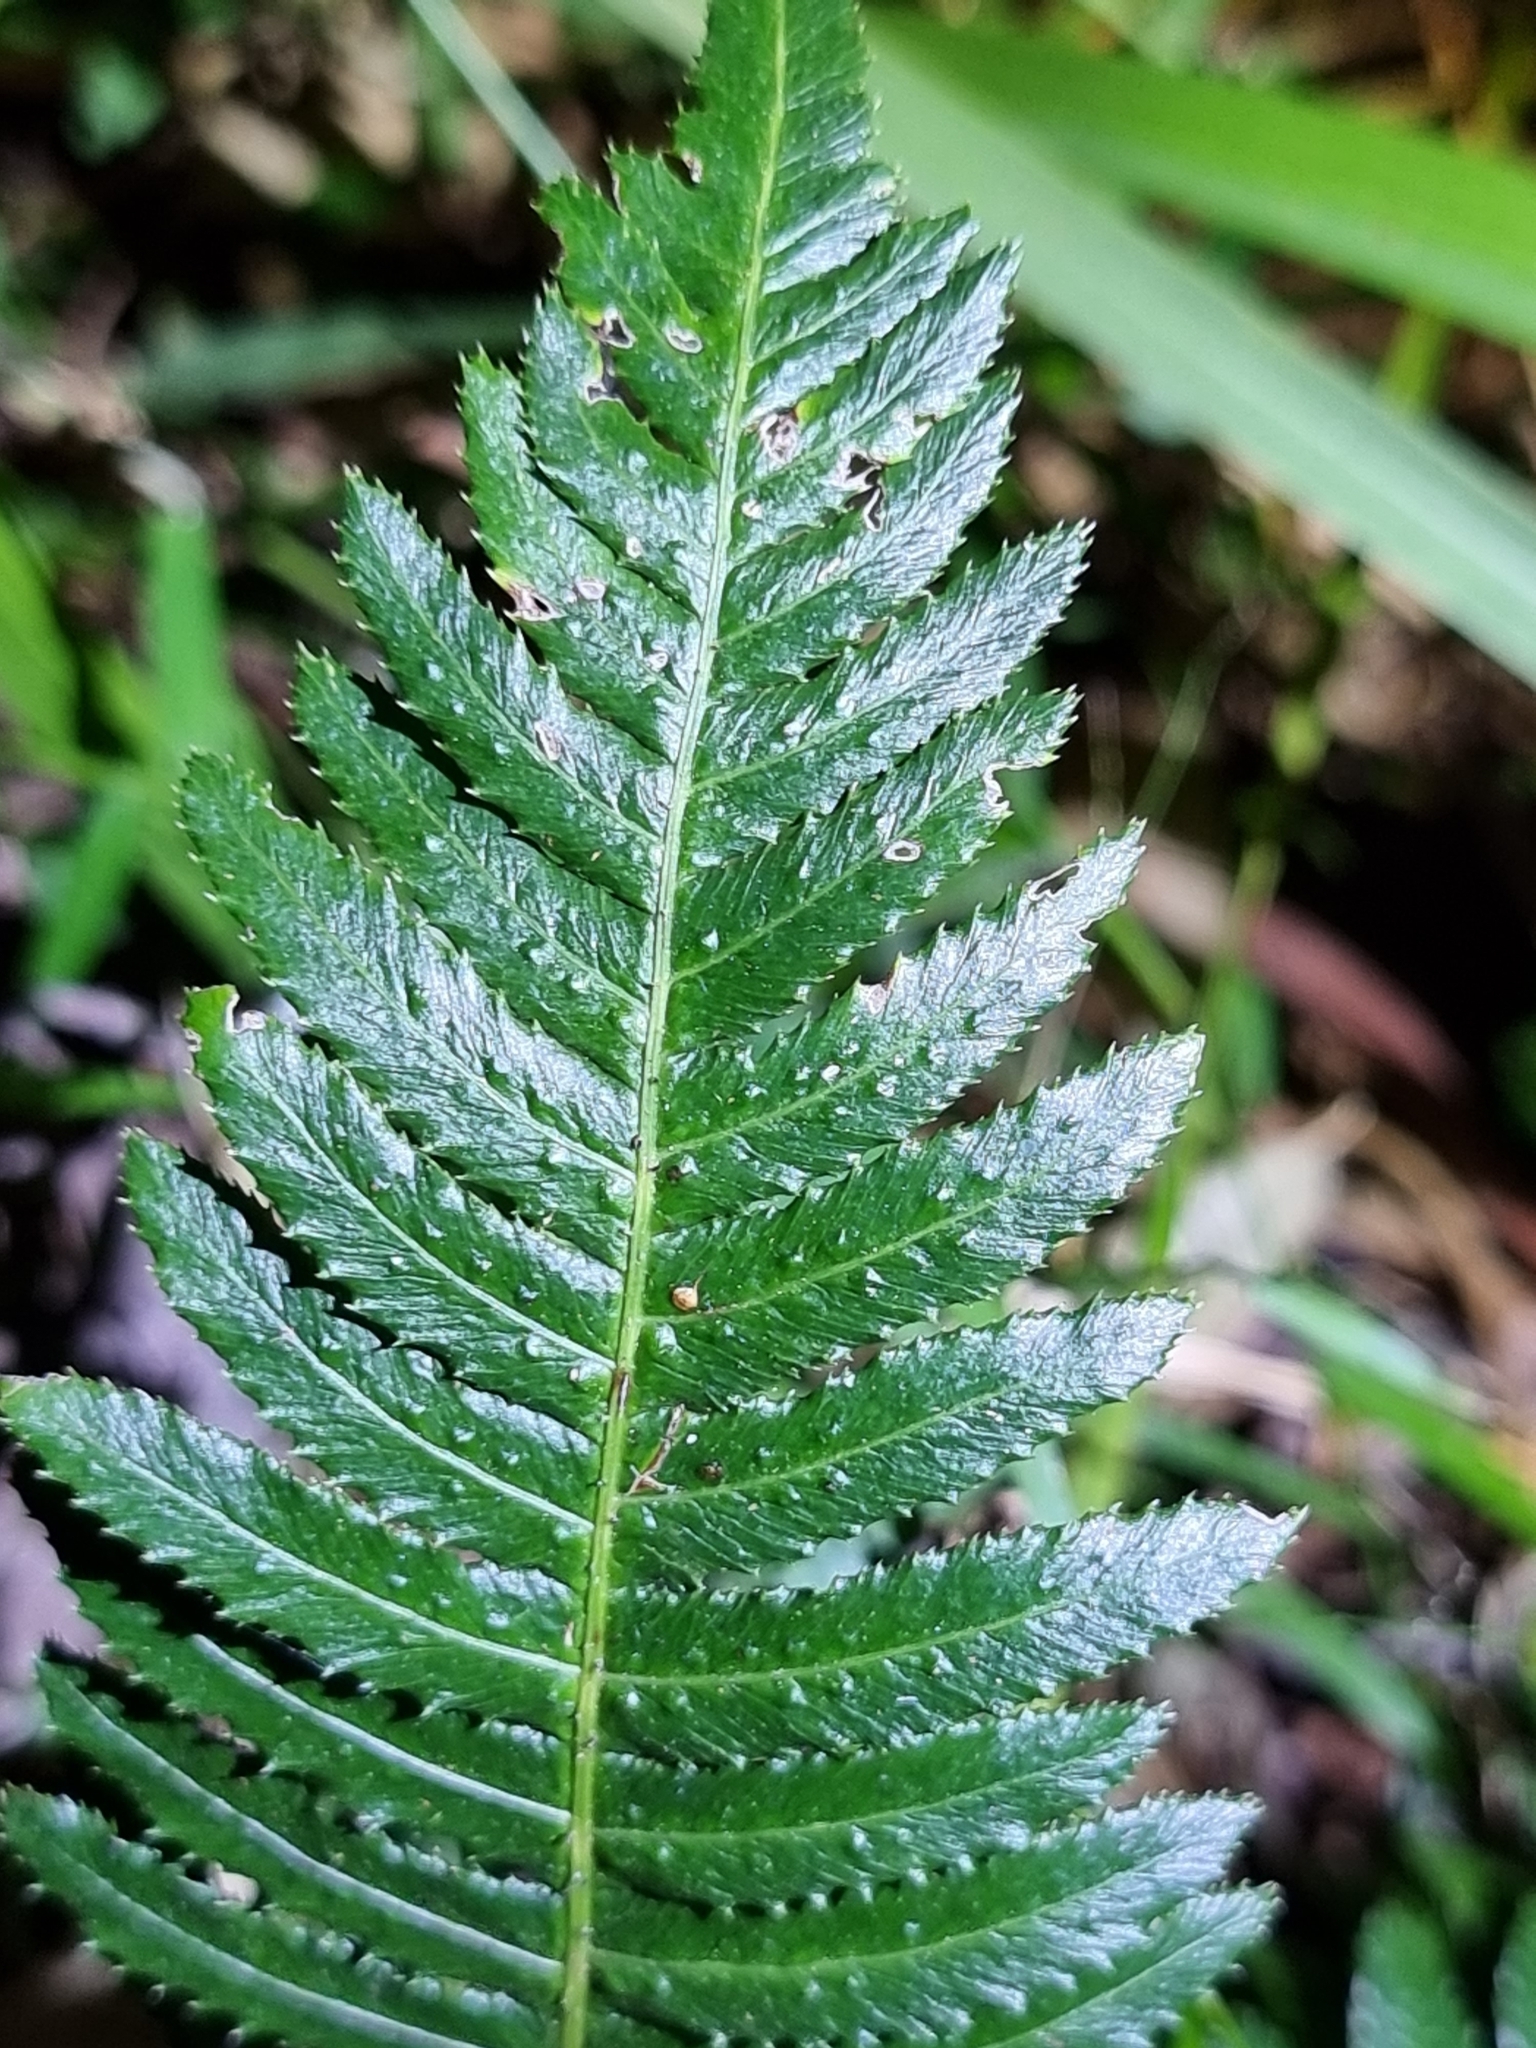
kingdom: Plantae
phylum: Tracheophyta
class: Polypodiopsida
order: Polypodiales
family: Blechnaceae
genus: Doodia
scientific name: Doodia aspera
